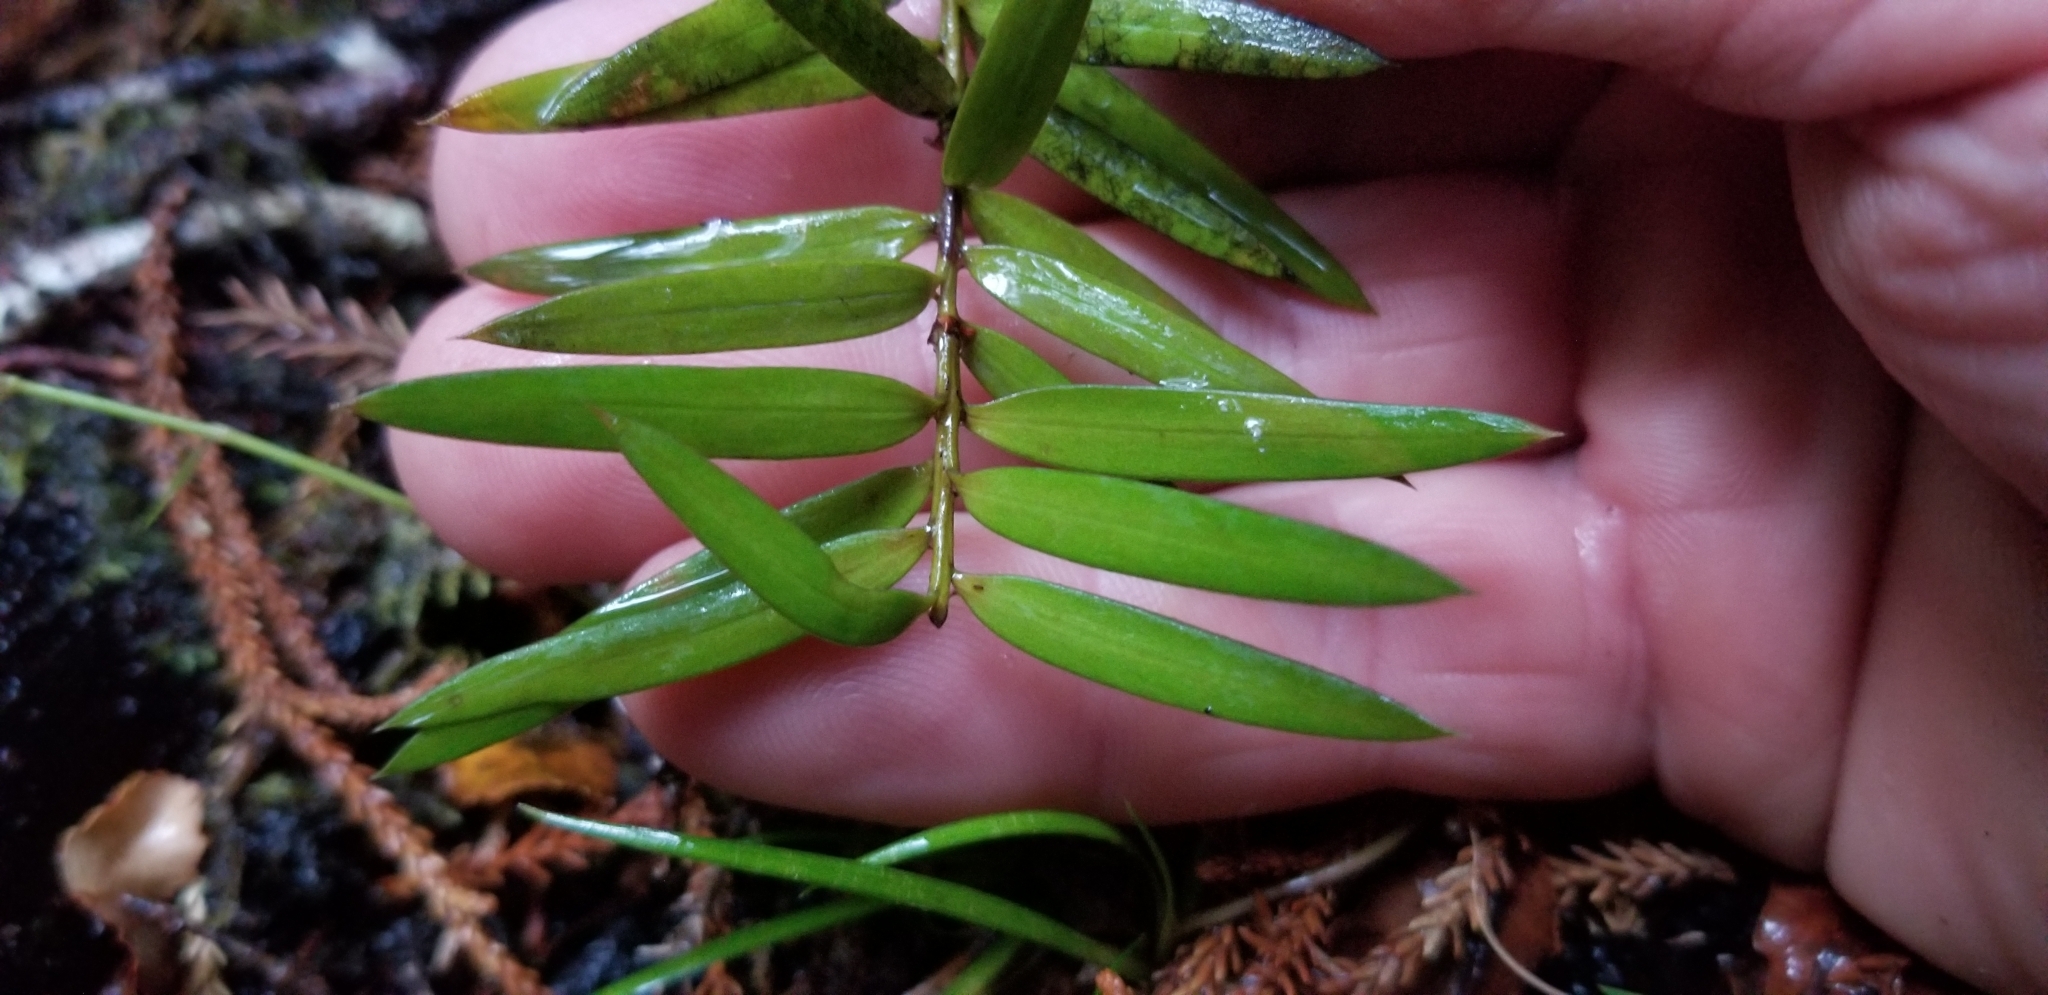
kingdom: Plantae
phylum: Tracheophyta
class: Pinopsida
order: Pinales
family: Podocarpaceae
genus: Podocarpus
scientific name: Podocarpus laetus
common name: Hall's totara
